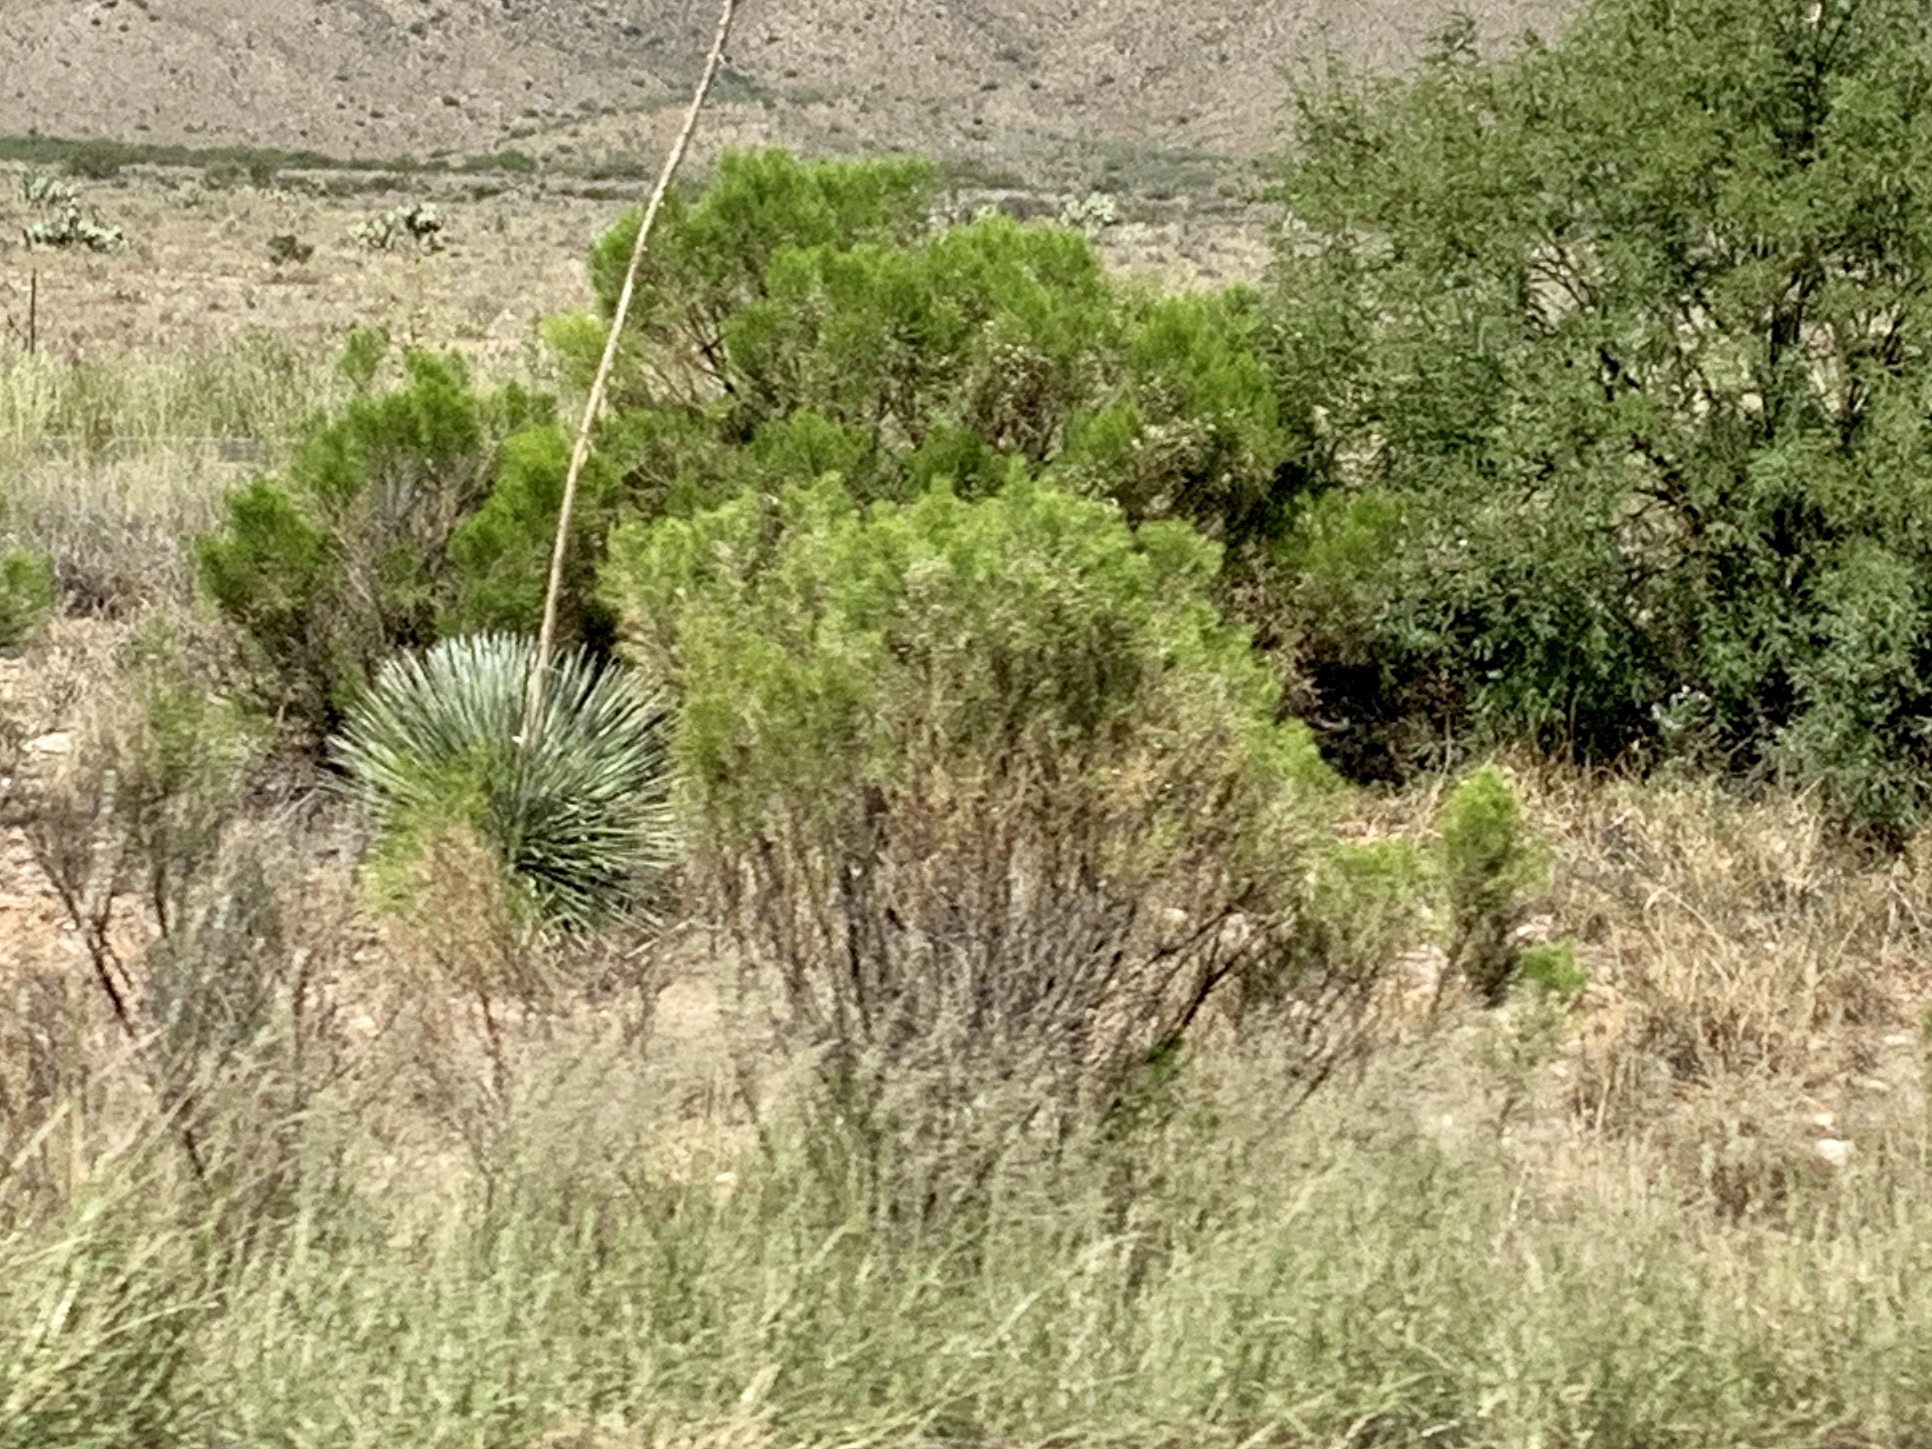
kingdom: Plantae
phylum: Tracheophyta
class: Magnoliopsida
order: Asterales
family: Asteraceae
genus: Baccharis
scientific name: Baccharis sarothroides
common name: Desert-broom
